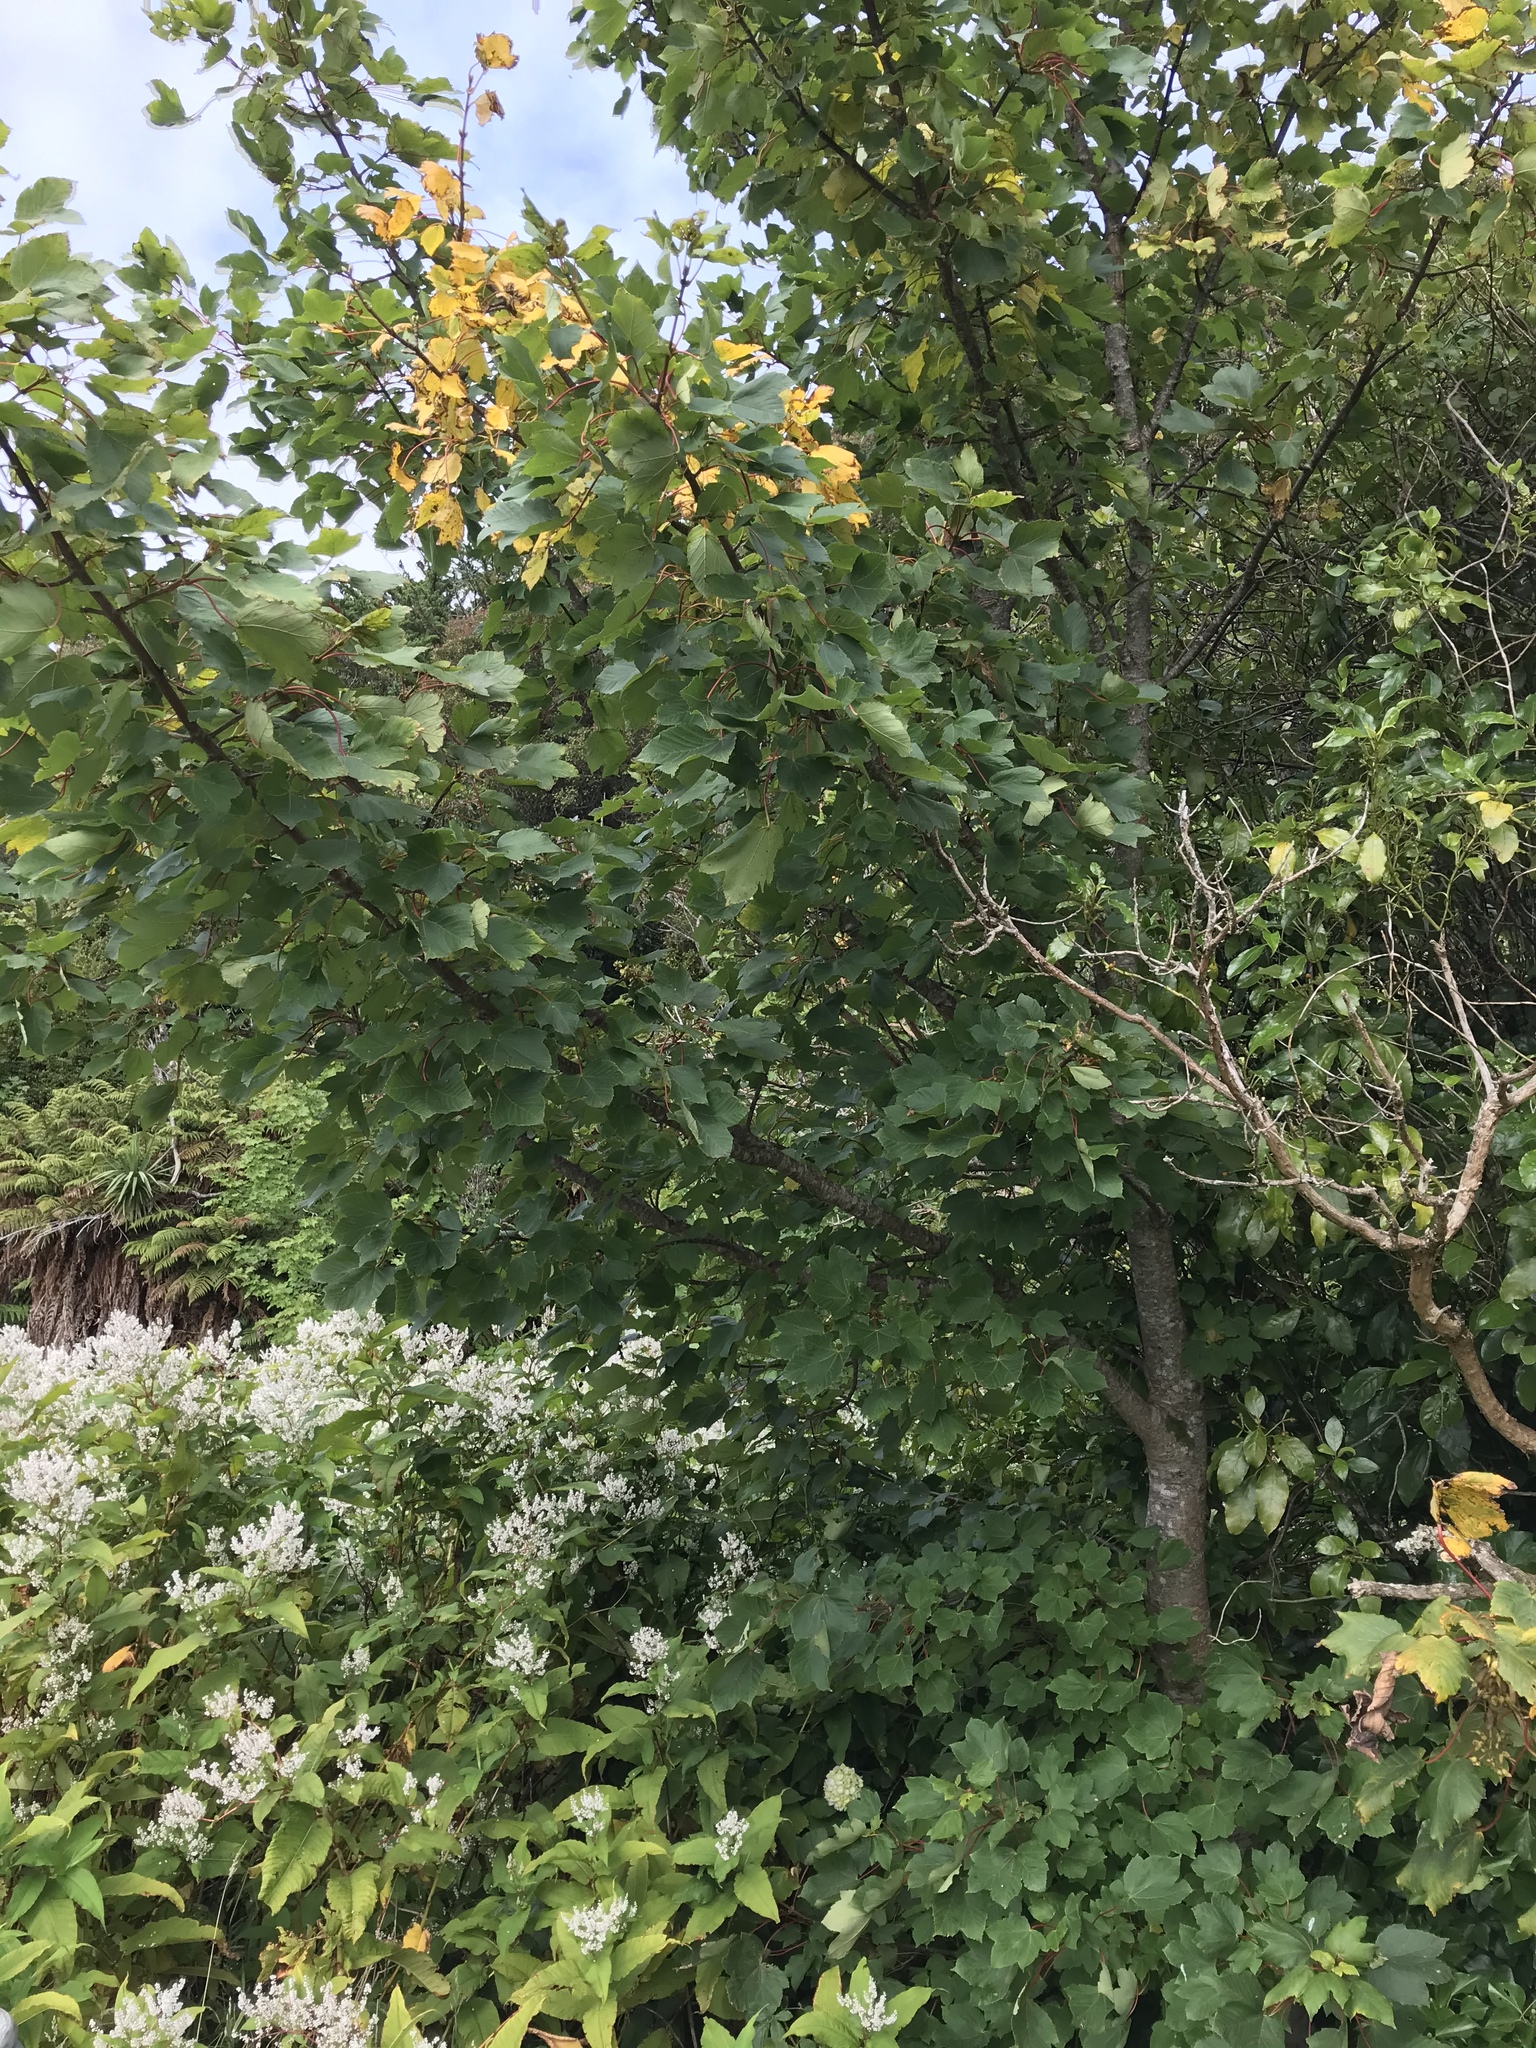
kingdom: Plantae
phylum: Tracheophyta
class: Magnoliopsida
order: Sapindales
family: Sapindaceae
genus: Acer
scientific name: Acer pseudoplatanus
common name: Sycamore
